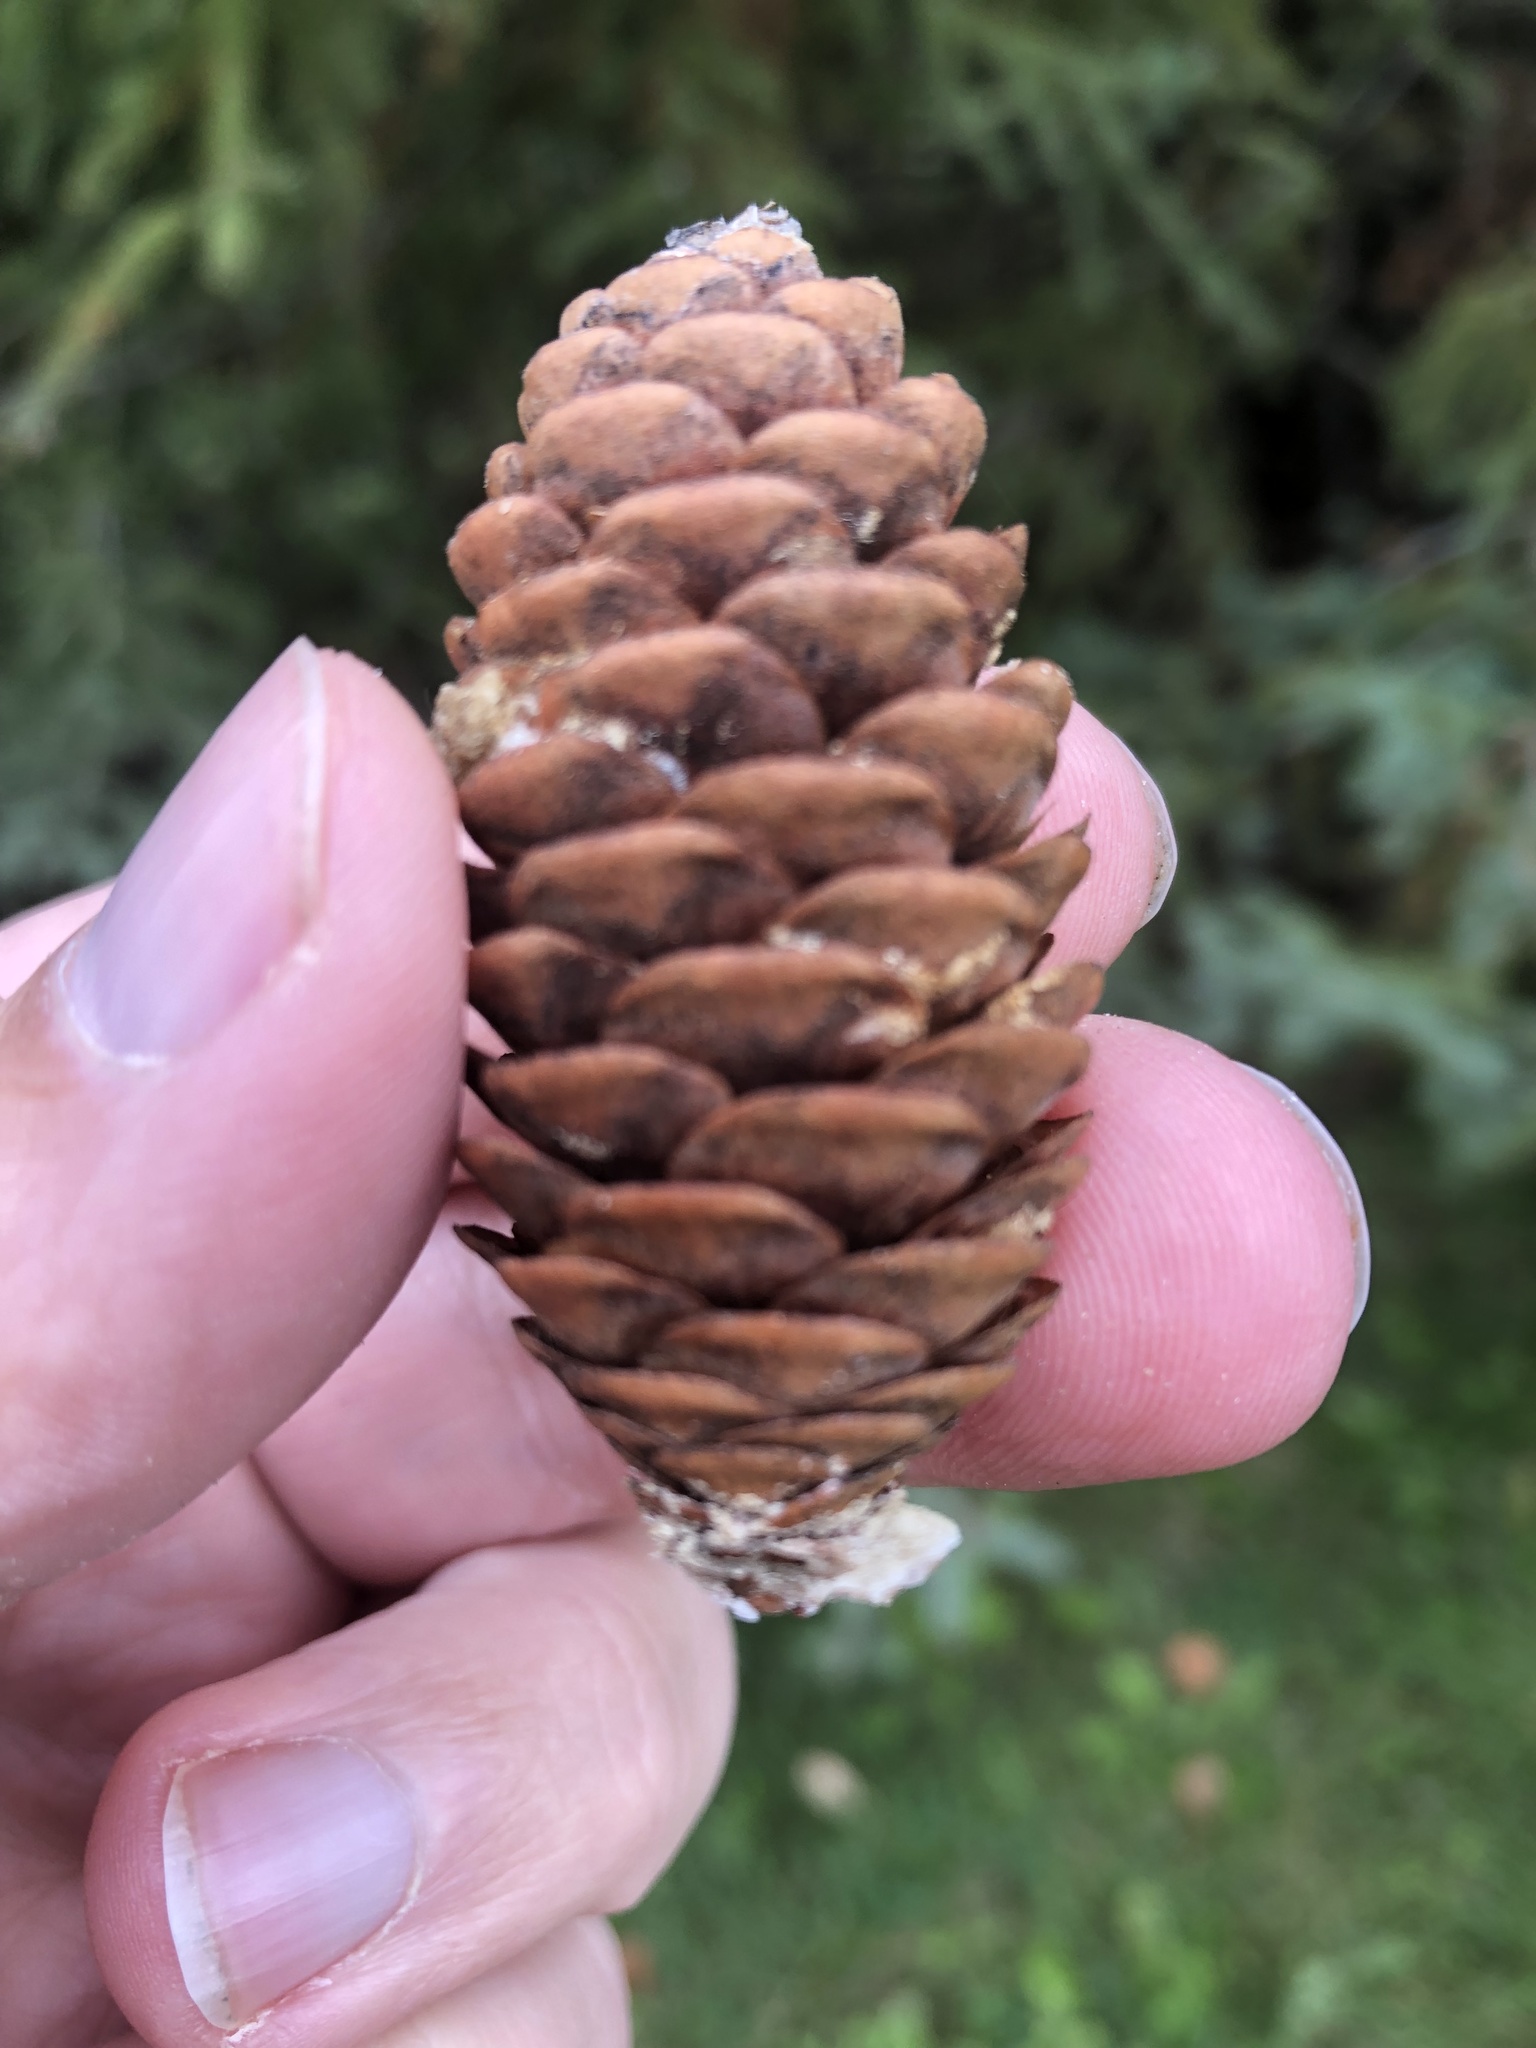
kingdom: Plantae
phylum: Tracheophyta
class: Pinopsida
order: Pinales
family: Pinaceae
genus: Picea
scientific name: Picea glauca
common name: White spruce
